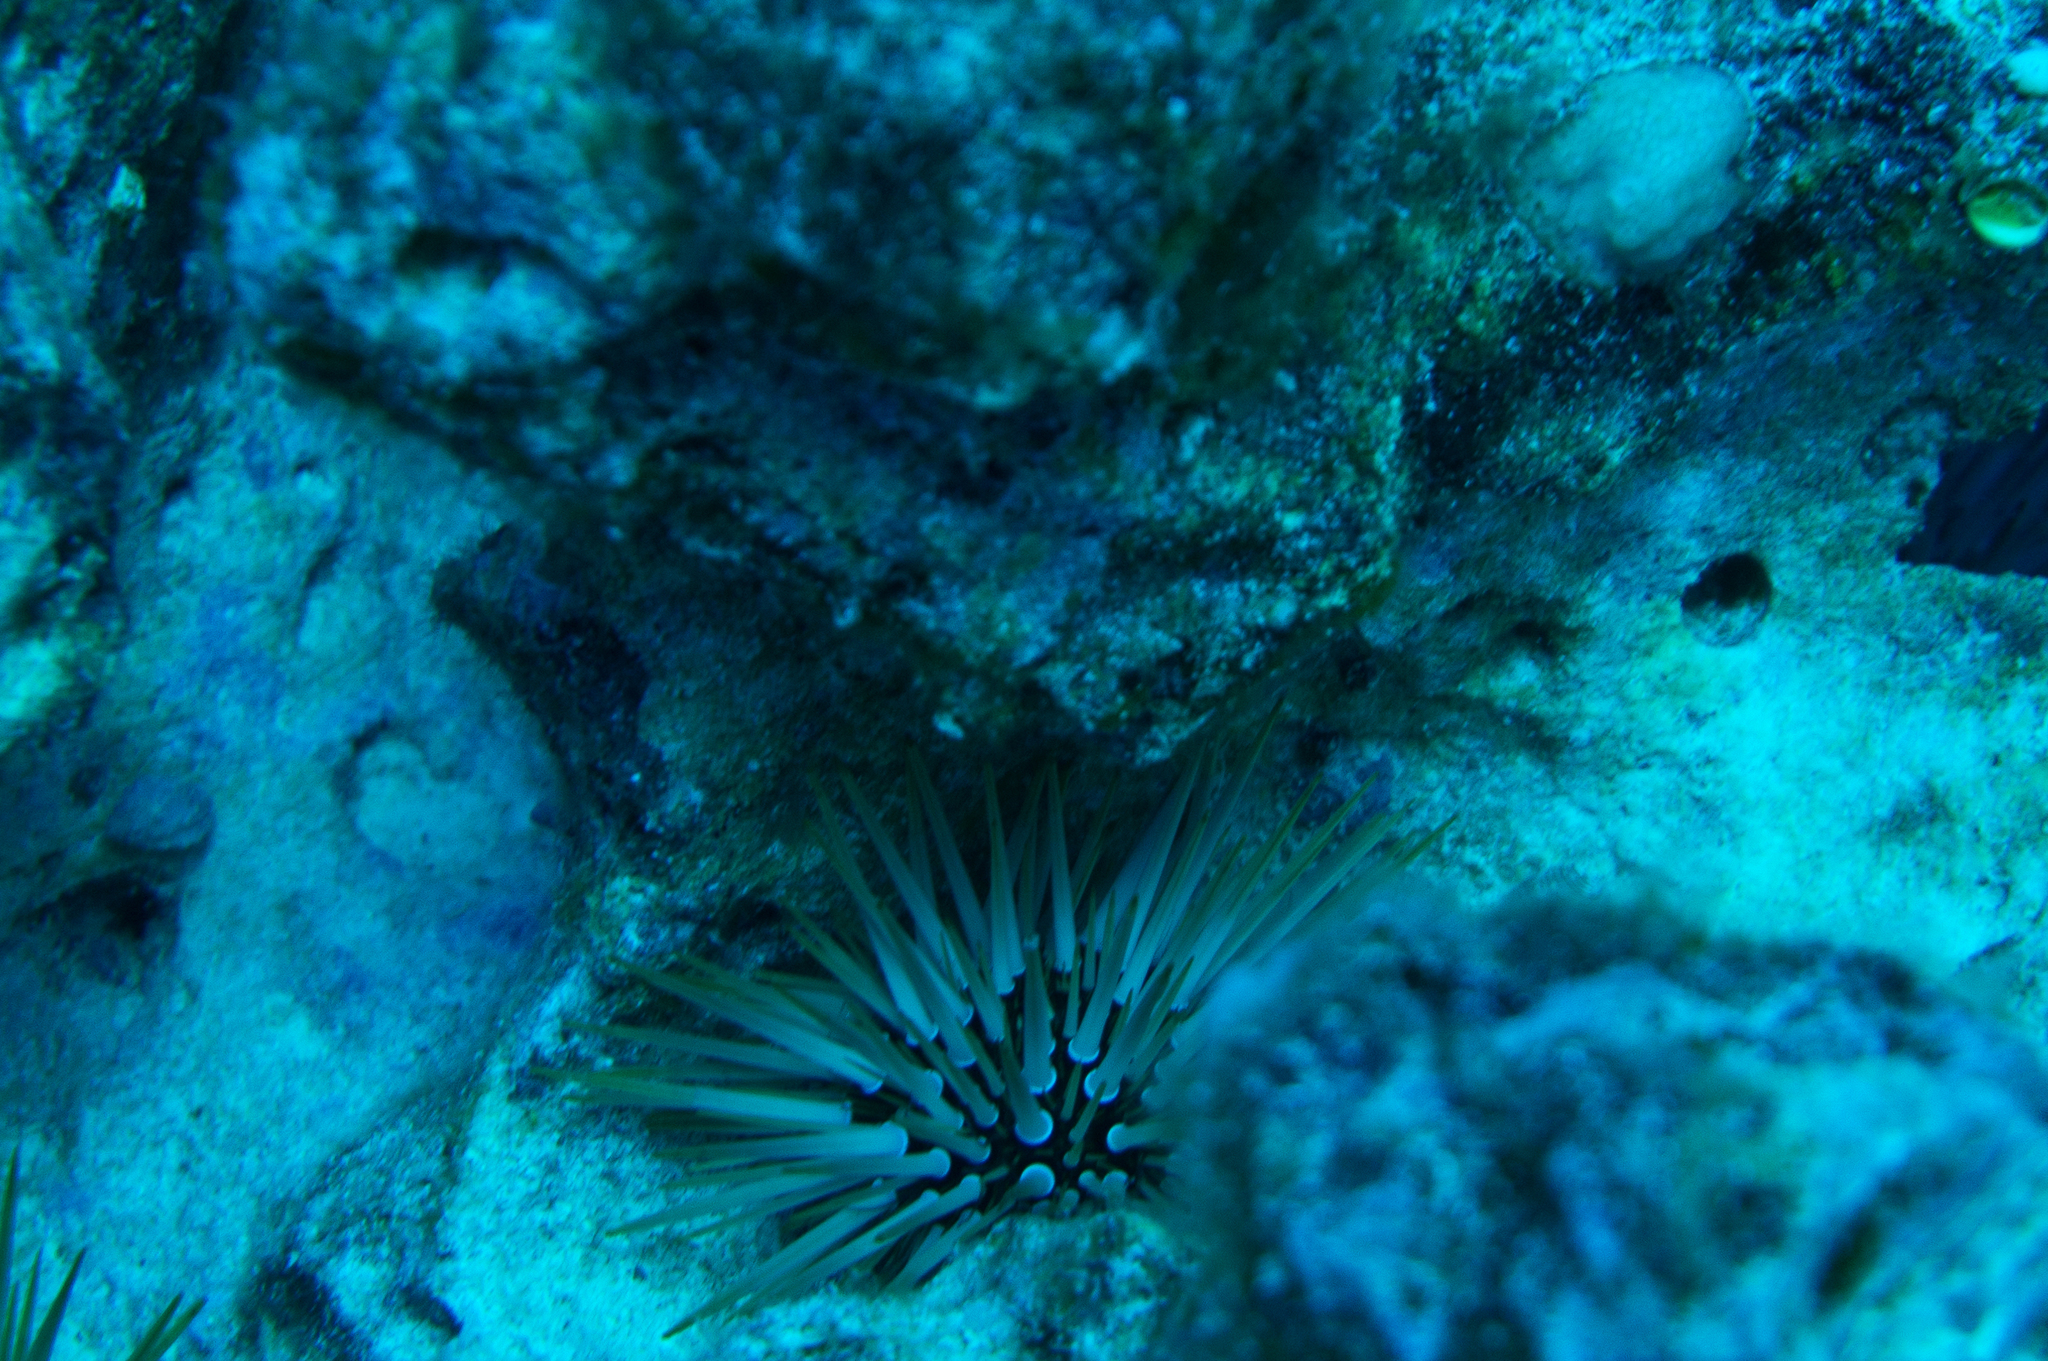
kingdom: Animalia
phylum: Echinodermata
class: Echinoidea
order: Camarodonta
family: Echinometridae
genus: Echinometra
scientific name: Echinometra mathaei
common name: Rock-boring urchin
